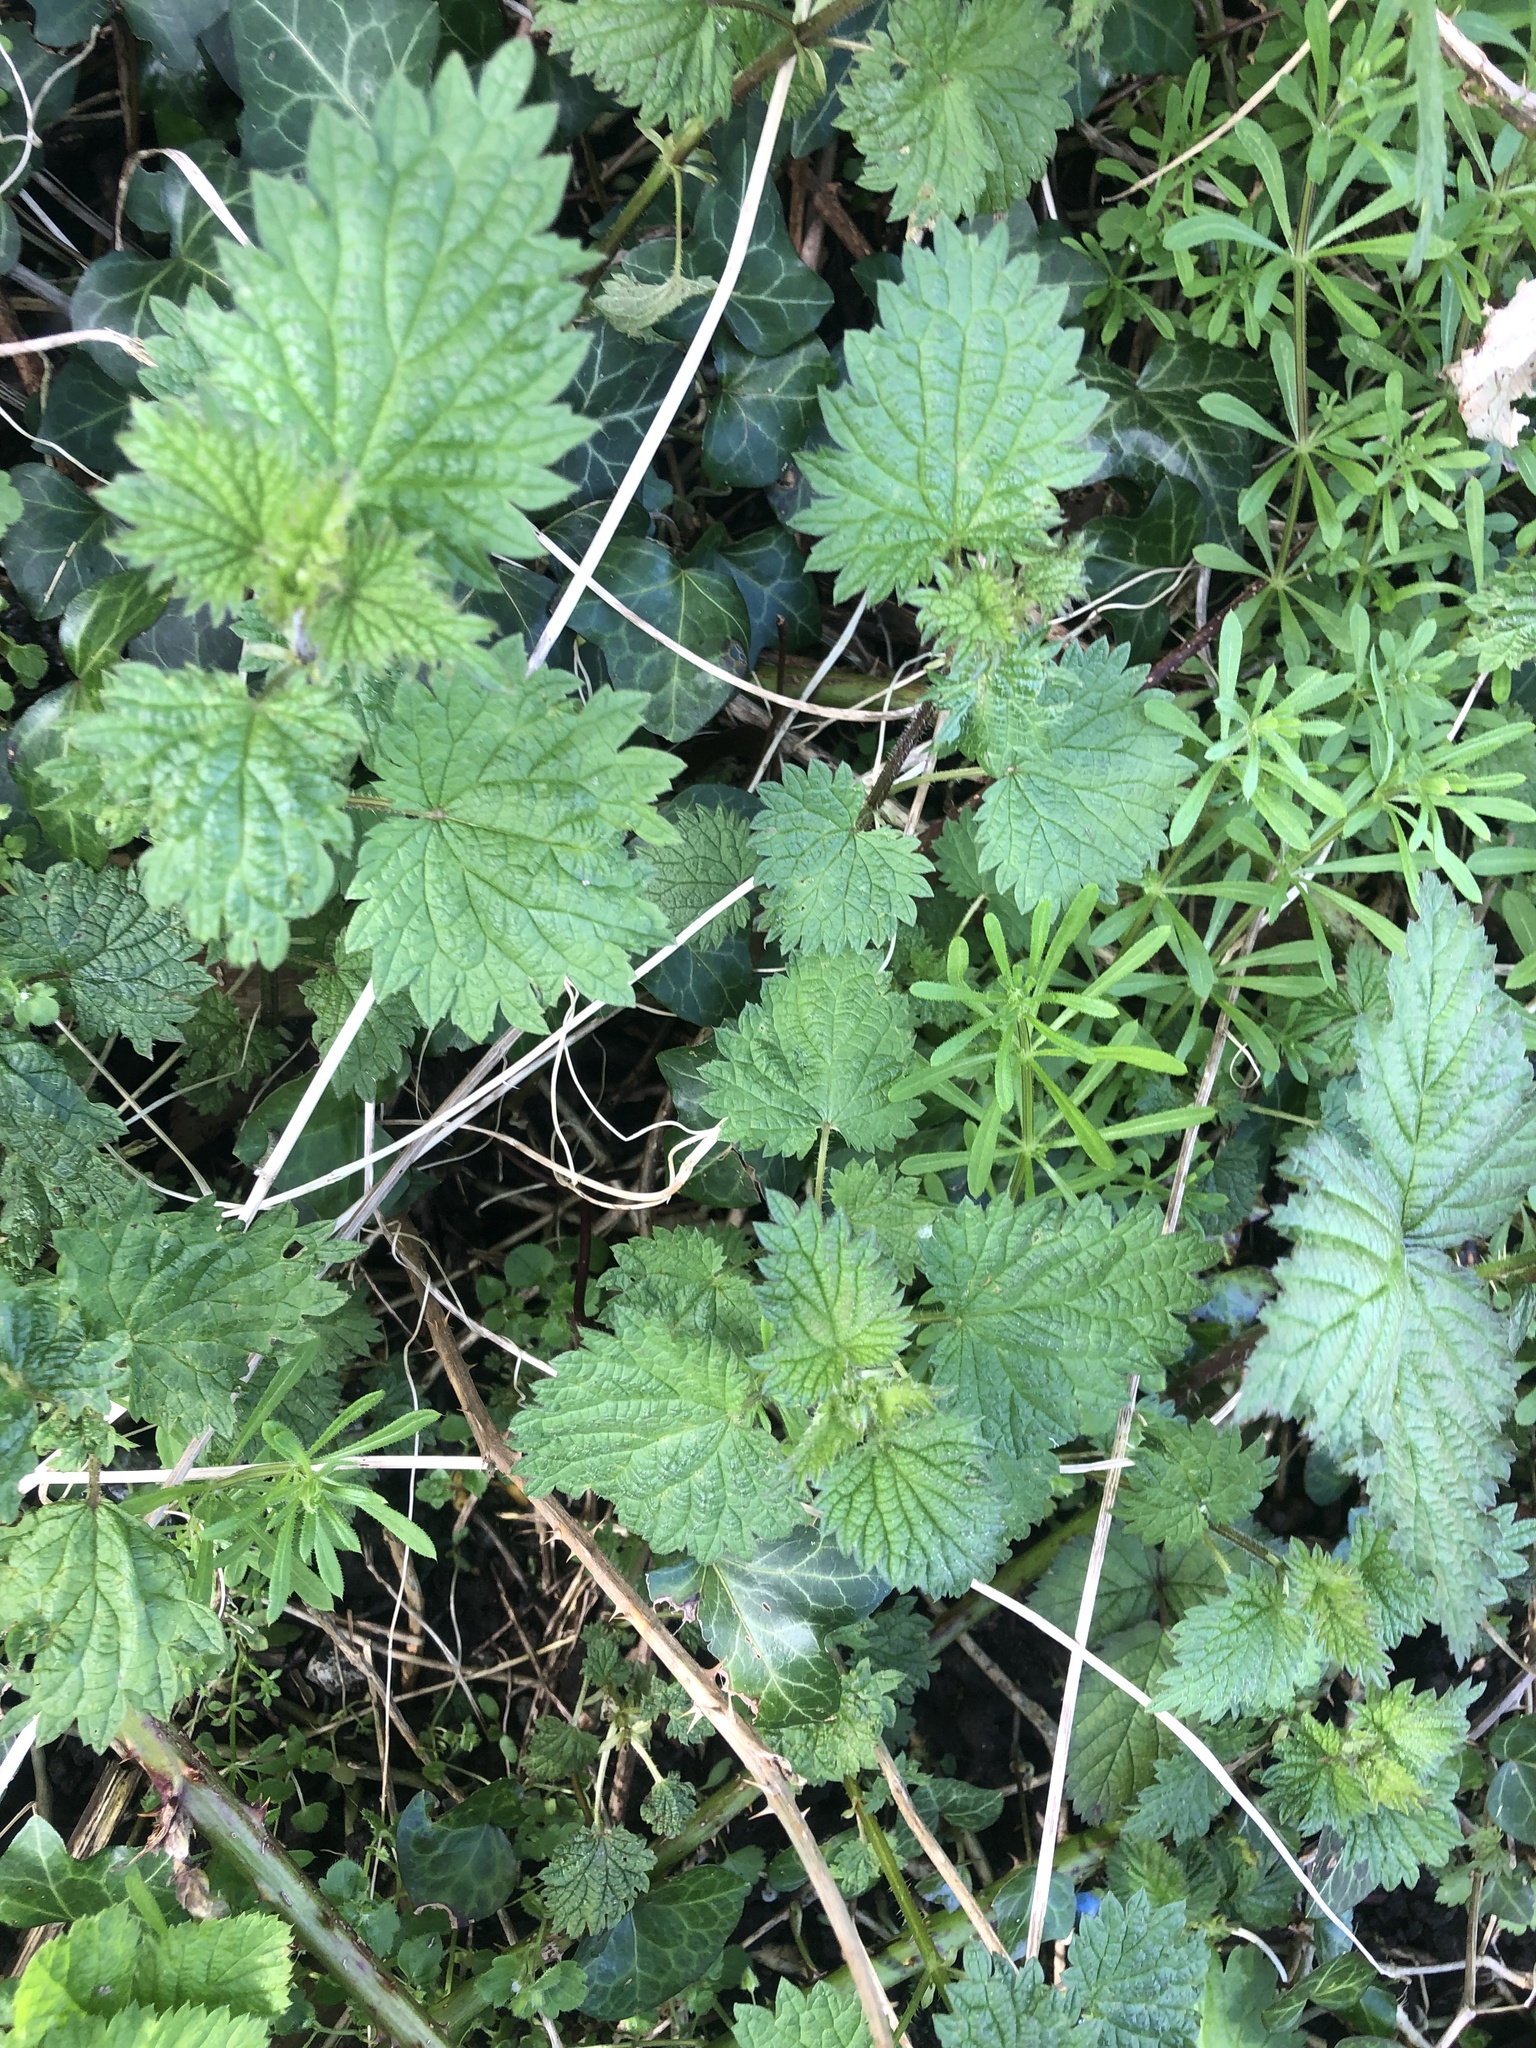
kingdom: Plantae
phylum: Tracheophyta
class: Magnoliopsida
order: Rosales
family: Urticaceae
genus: Urtica
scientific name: Urtica dioica
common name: Common nettle
